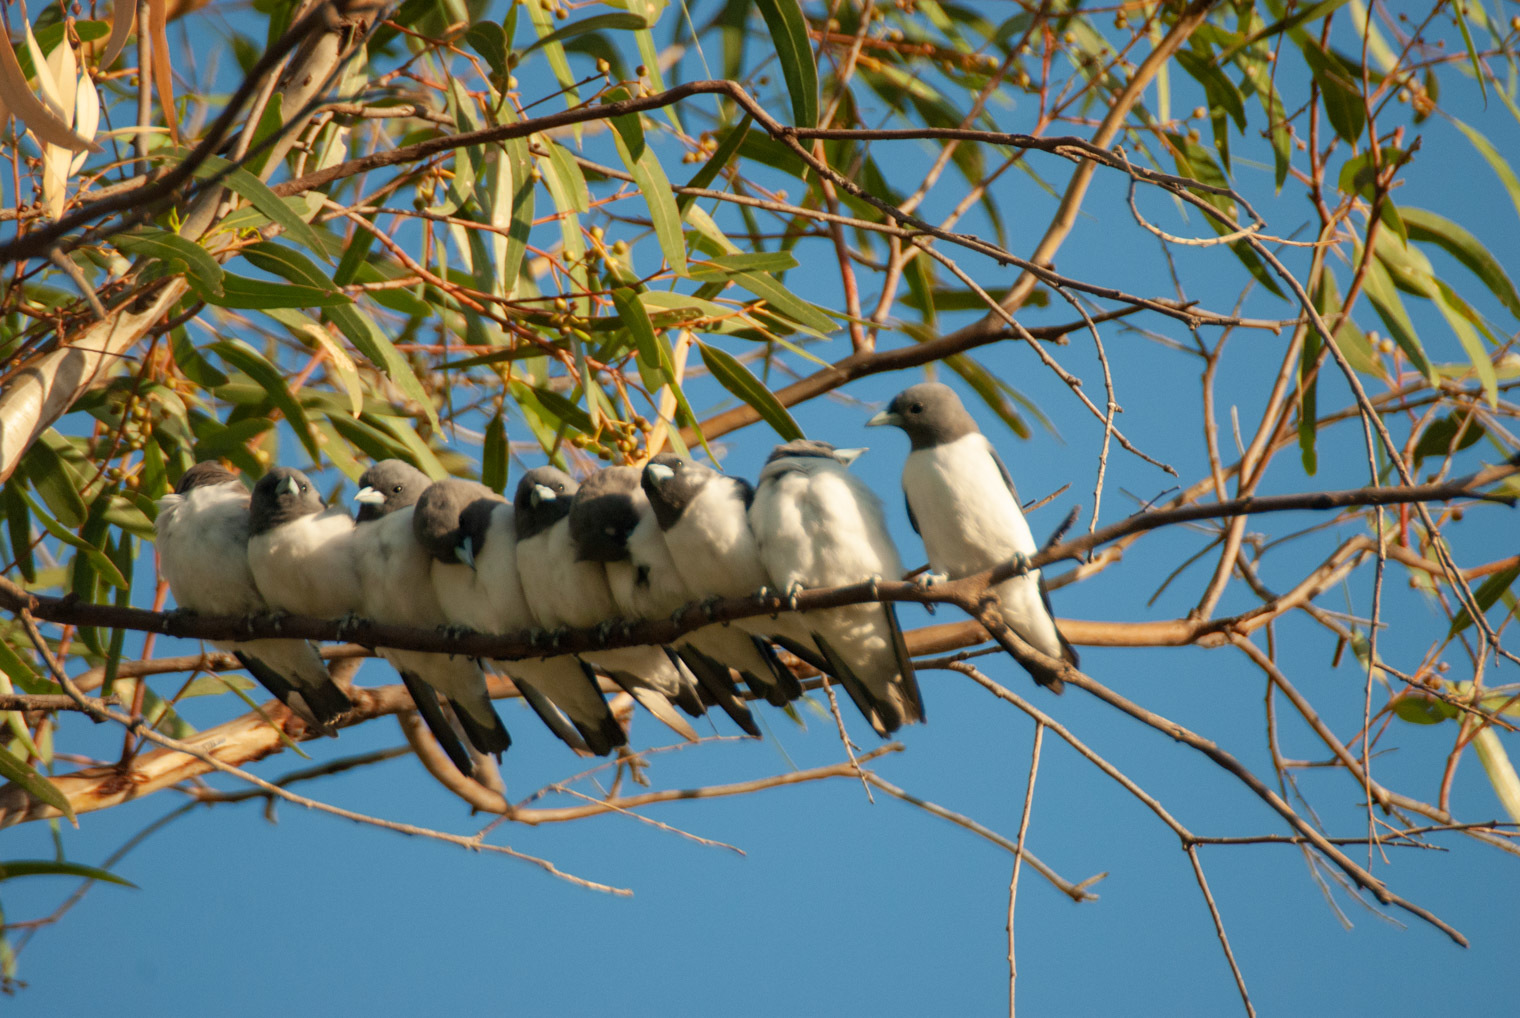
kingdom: Animalia
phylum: Chordata
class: Aves
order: Passeriformes
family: Artamidae
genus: Artamus
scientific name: Artamus leucoryn
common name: White-breasted woodswallow
